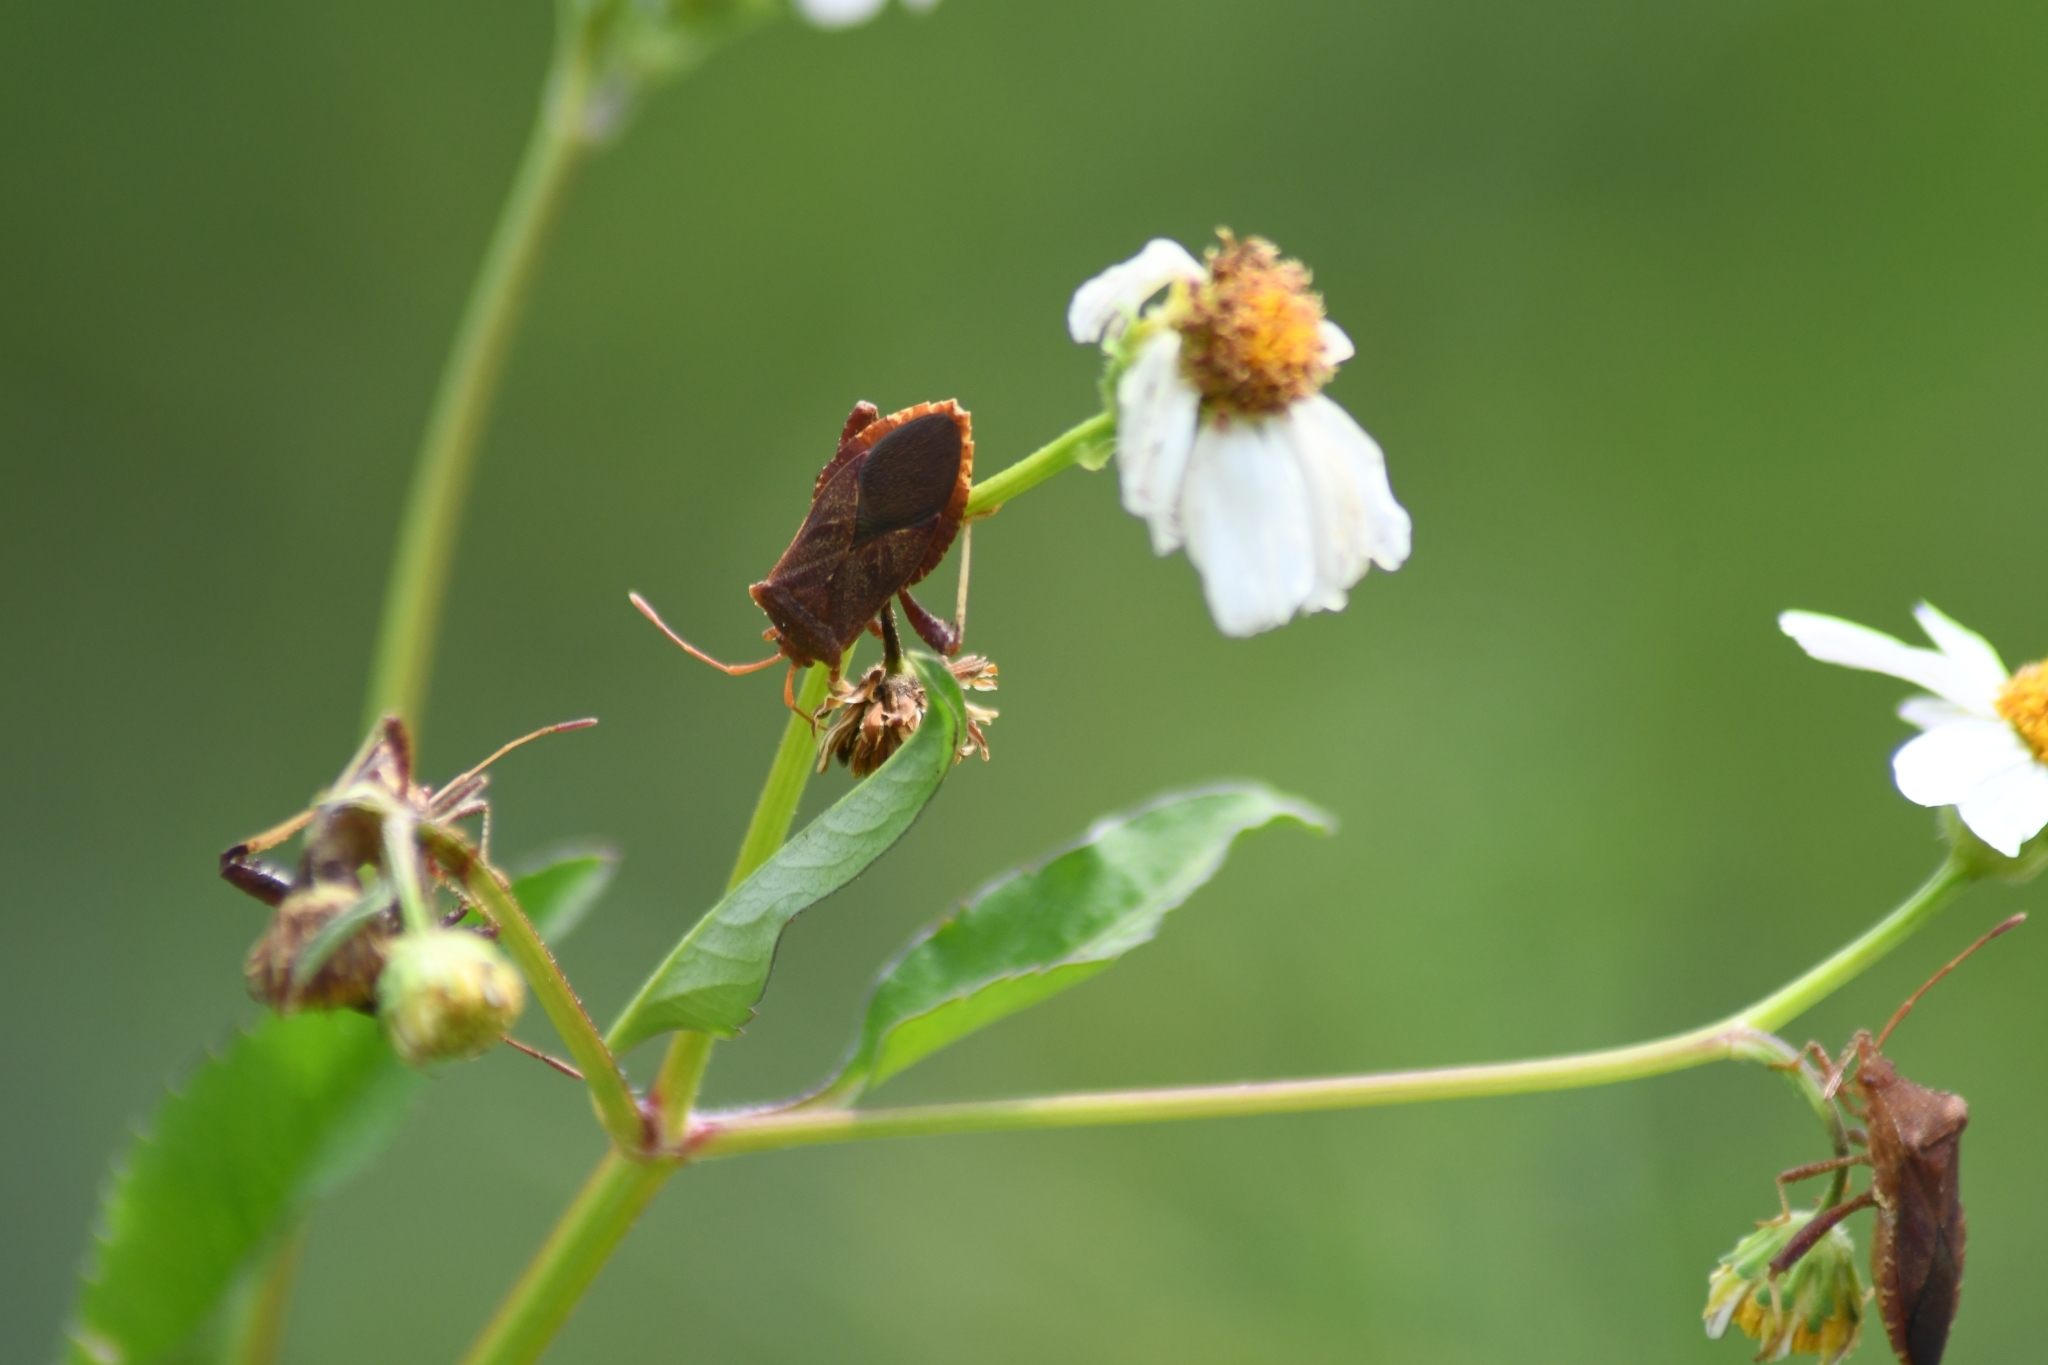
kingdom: Animalia
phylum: Arthropoda
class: Insecta
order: Hemiptera
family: Coreidae
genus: Euthochtha
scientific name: Euthochtha galeator
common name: Helmeted squash bug
